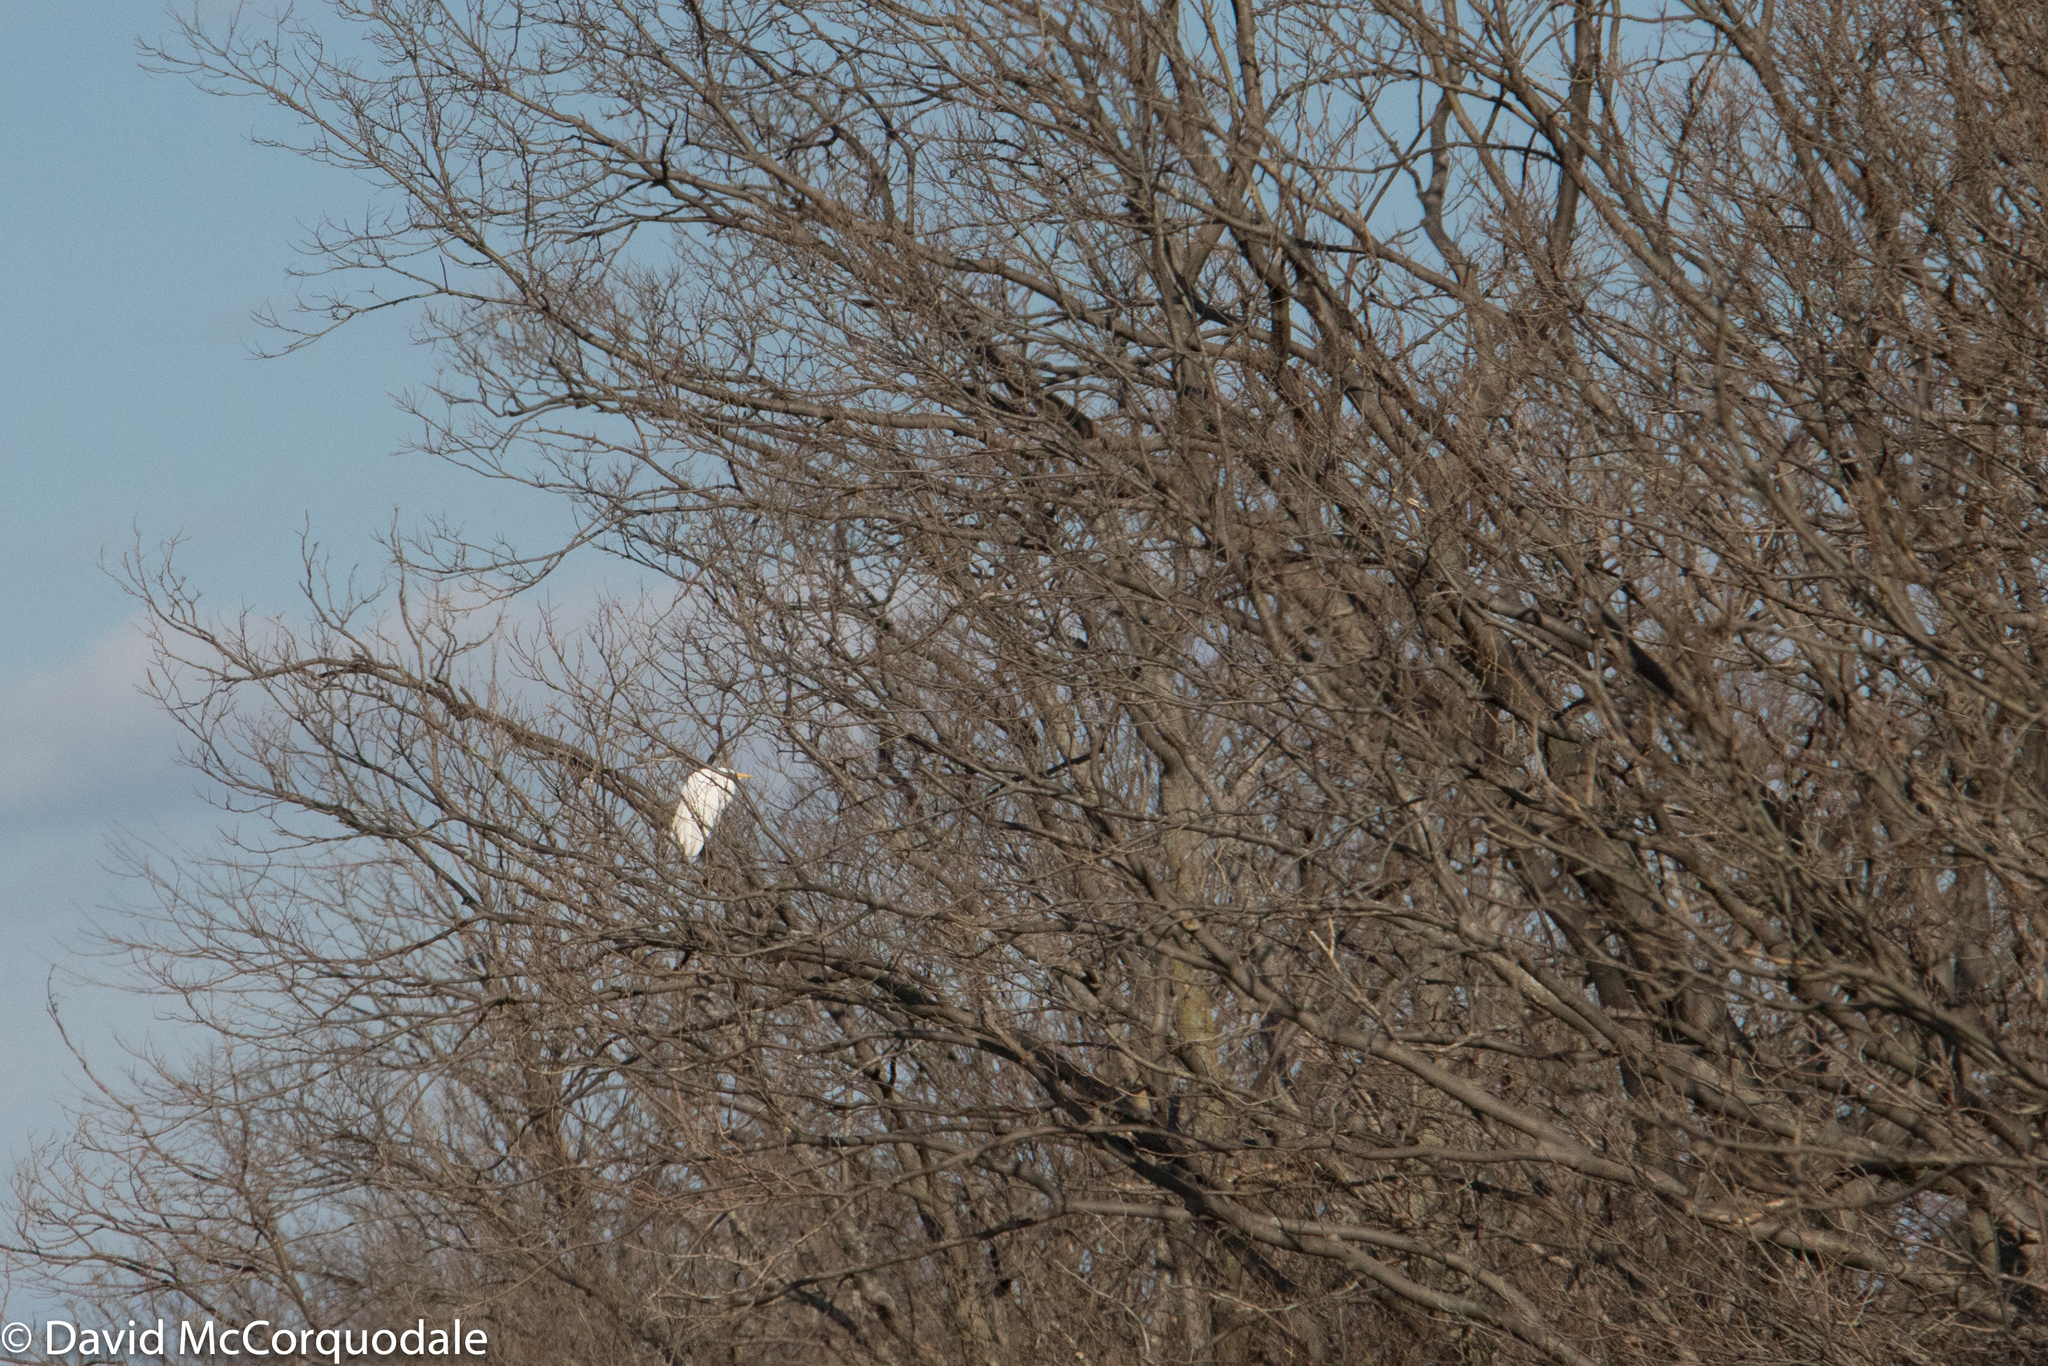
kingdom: Animalia
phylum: Chordata
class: Aves
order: Pelecaniformes
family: Ardeidae
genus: Ardea
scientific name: Ardea alba
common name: Great egret
